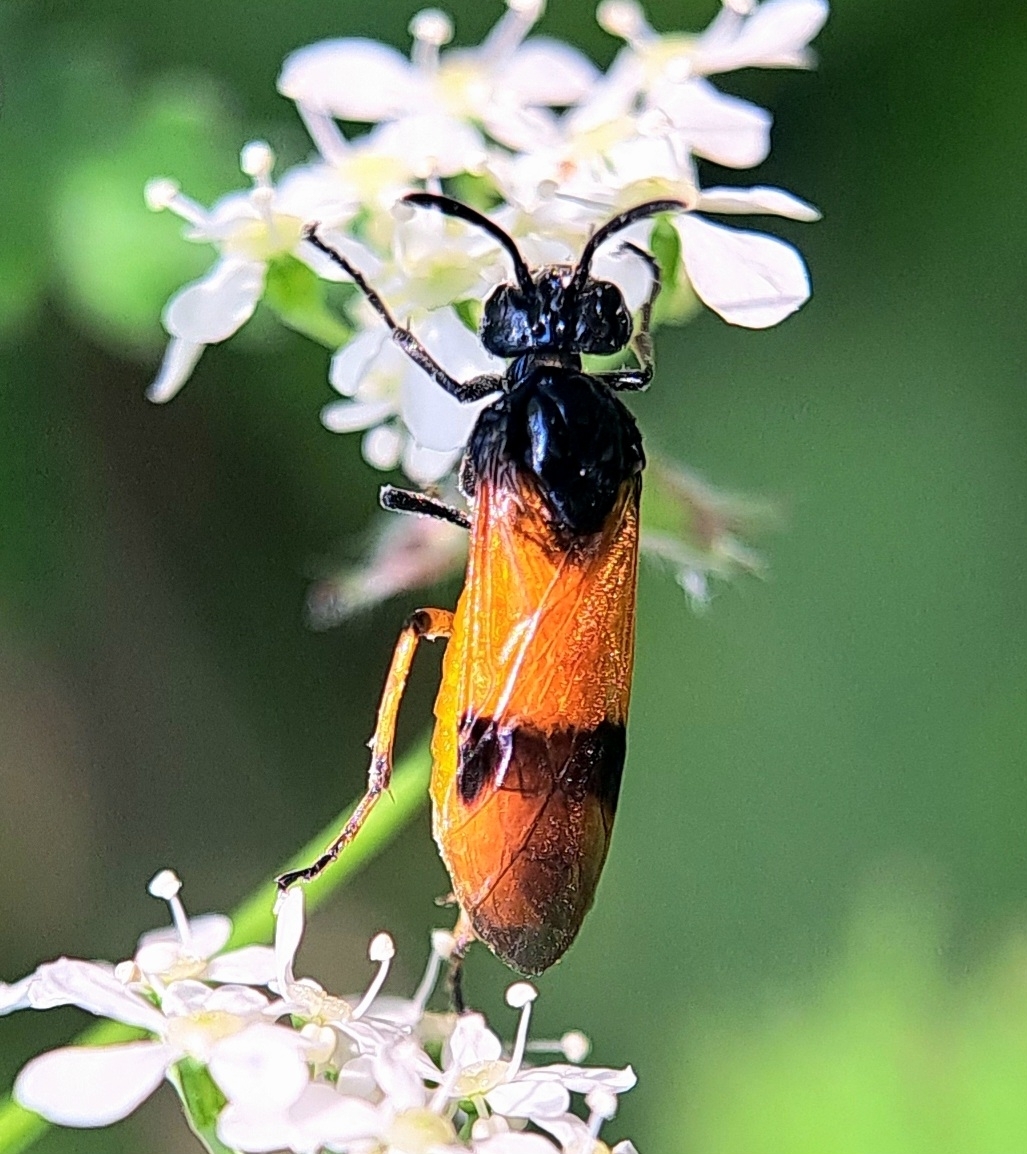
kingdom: Animalia
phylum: Arthropoda
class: Insecta
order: Hymenoptera
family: Argidae
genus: Arge
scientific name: Arge cyanocrocea
